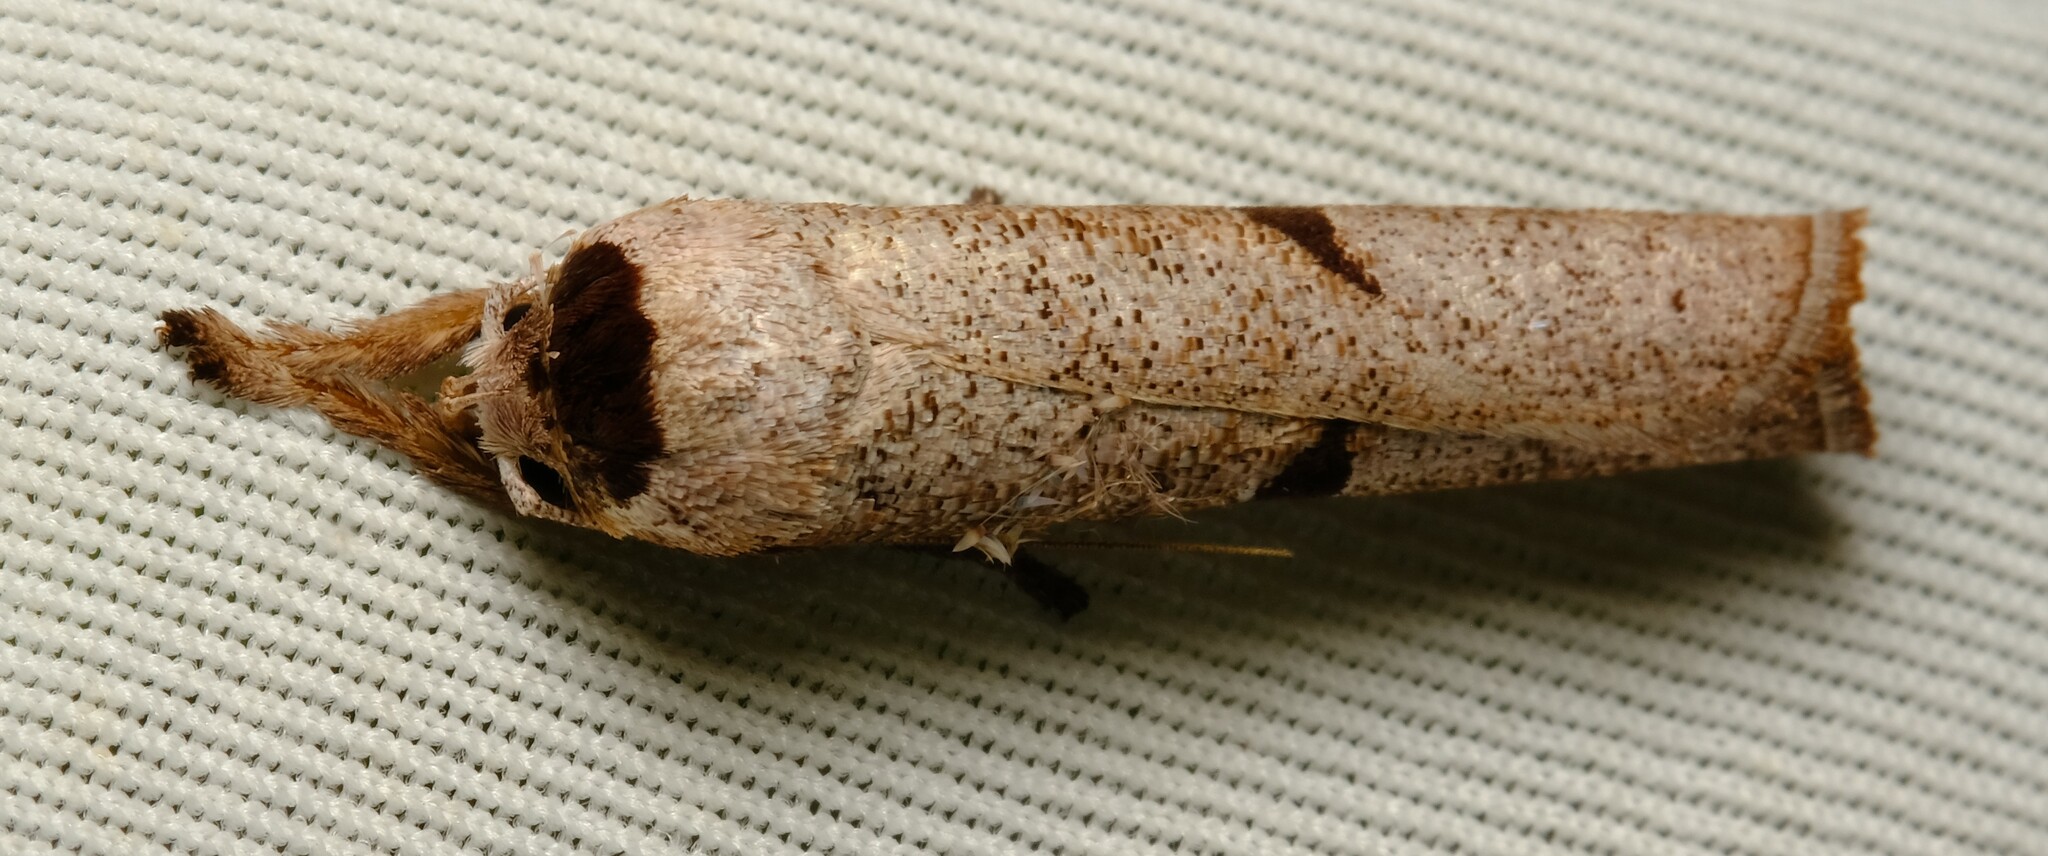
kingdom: Animalia
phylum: Arthropoda
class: Insecta
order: Lepidoptera
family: Xyloryctidae
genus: Pilostibes
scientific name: Pilostibes stigmatias
